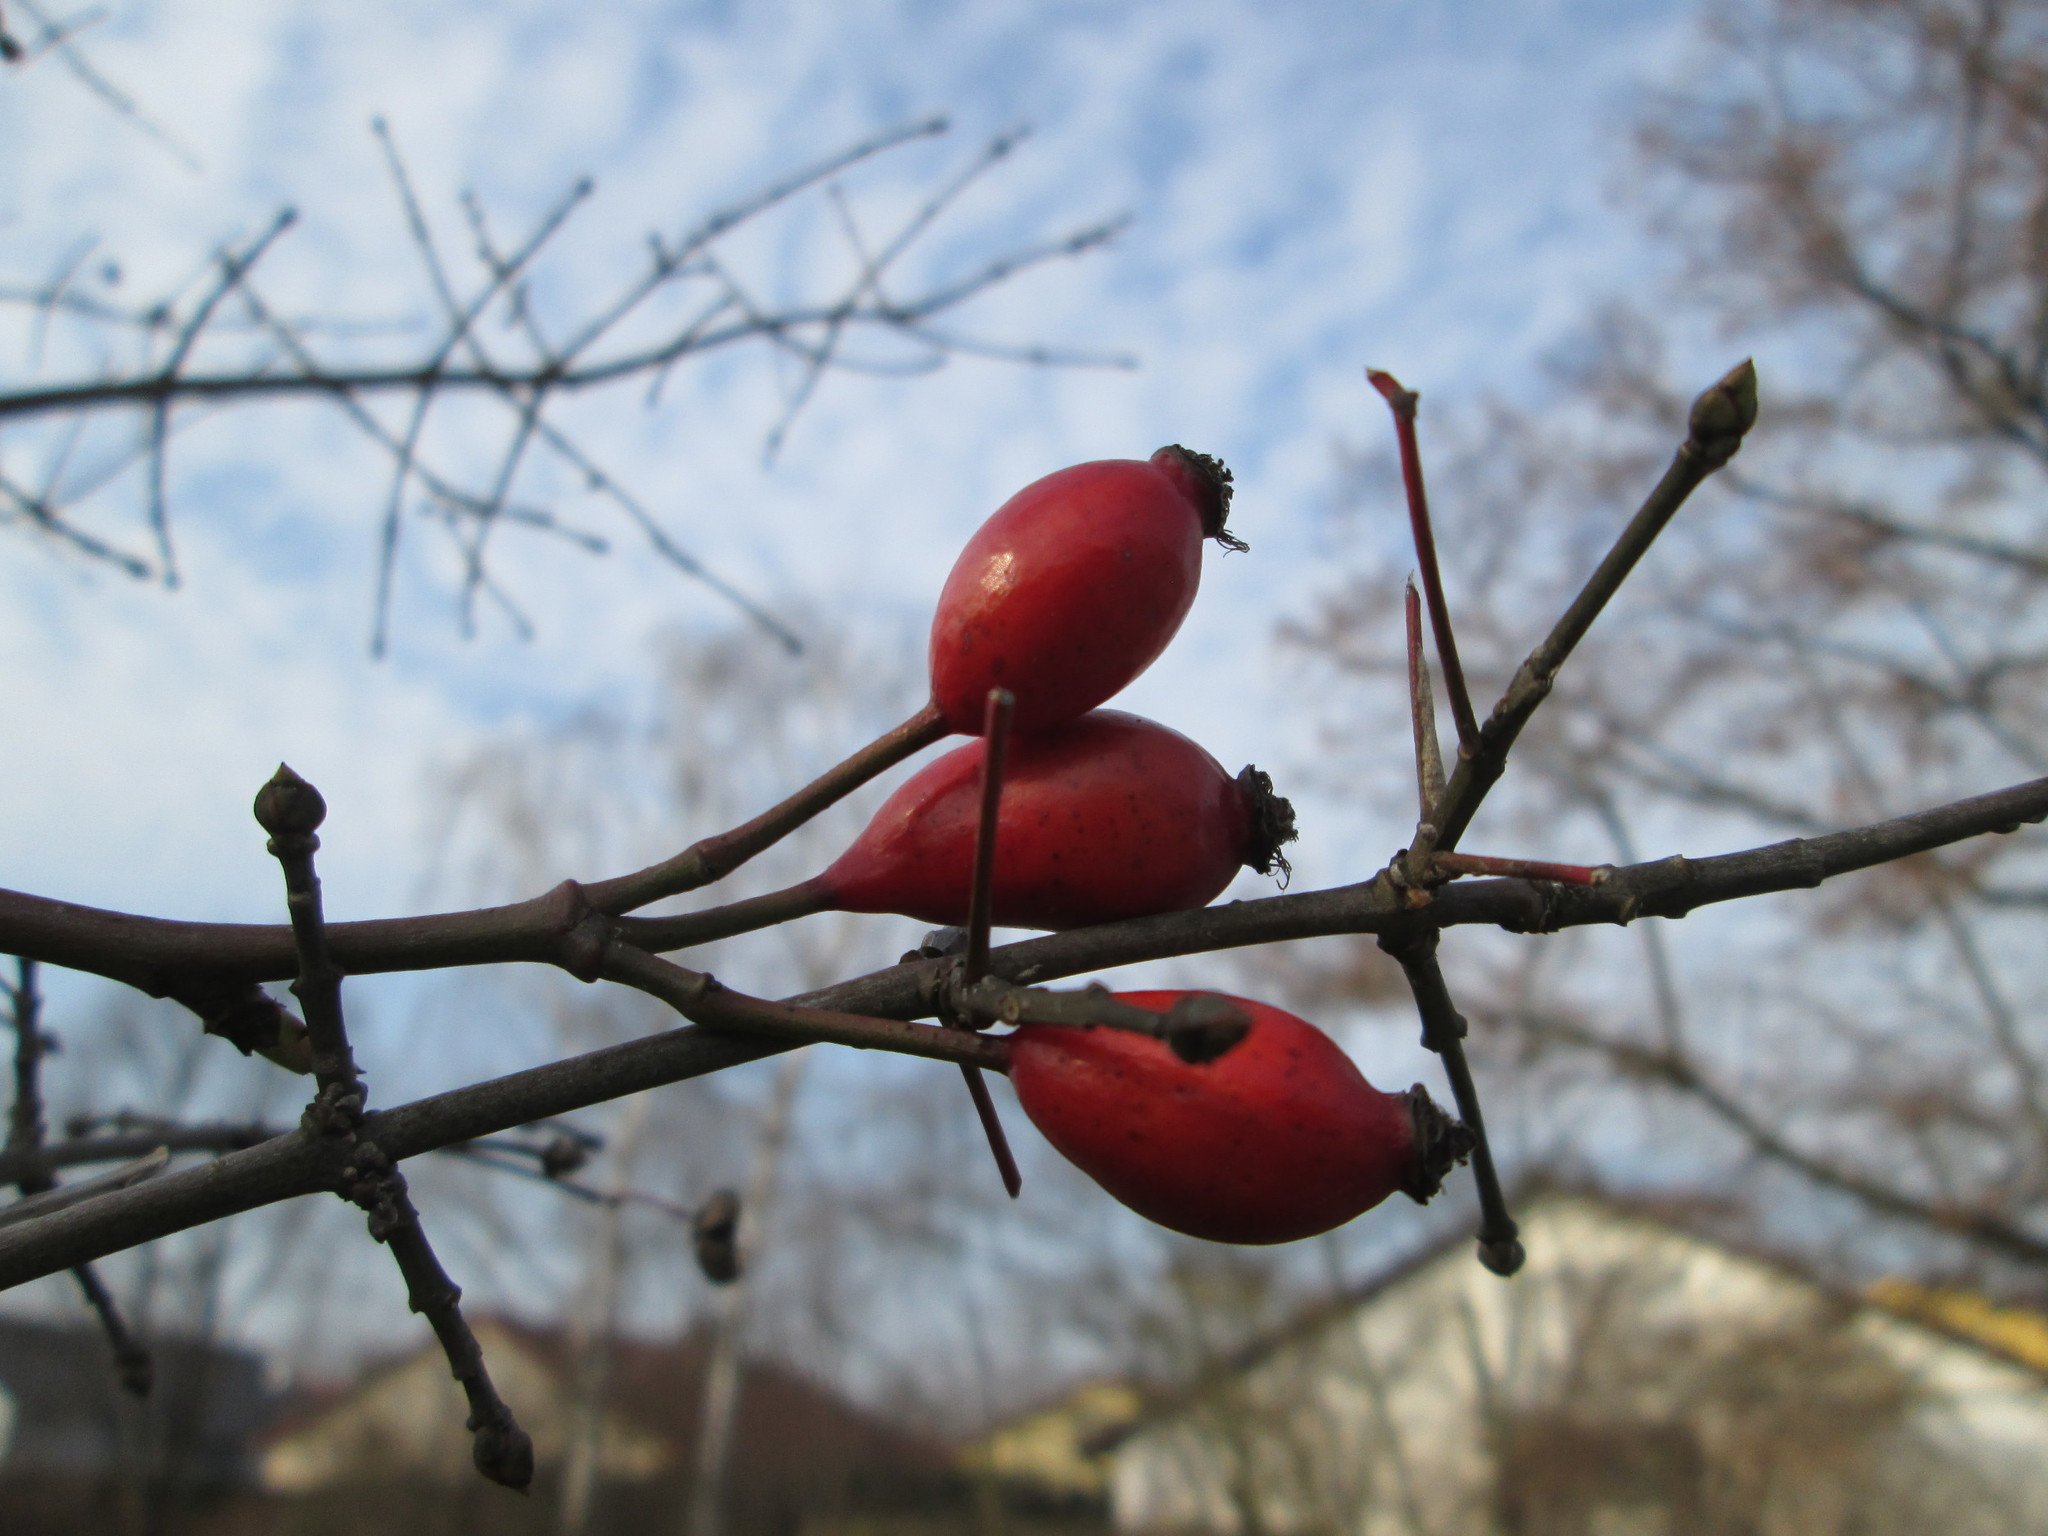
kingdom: Plantae
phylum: Tracheophyta
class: Magnoliopsida
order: Celastrales
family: Celastraceae
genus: Euonymus
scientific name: Euonymus europaeus
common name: Spindle
